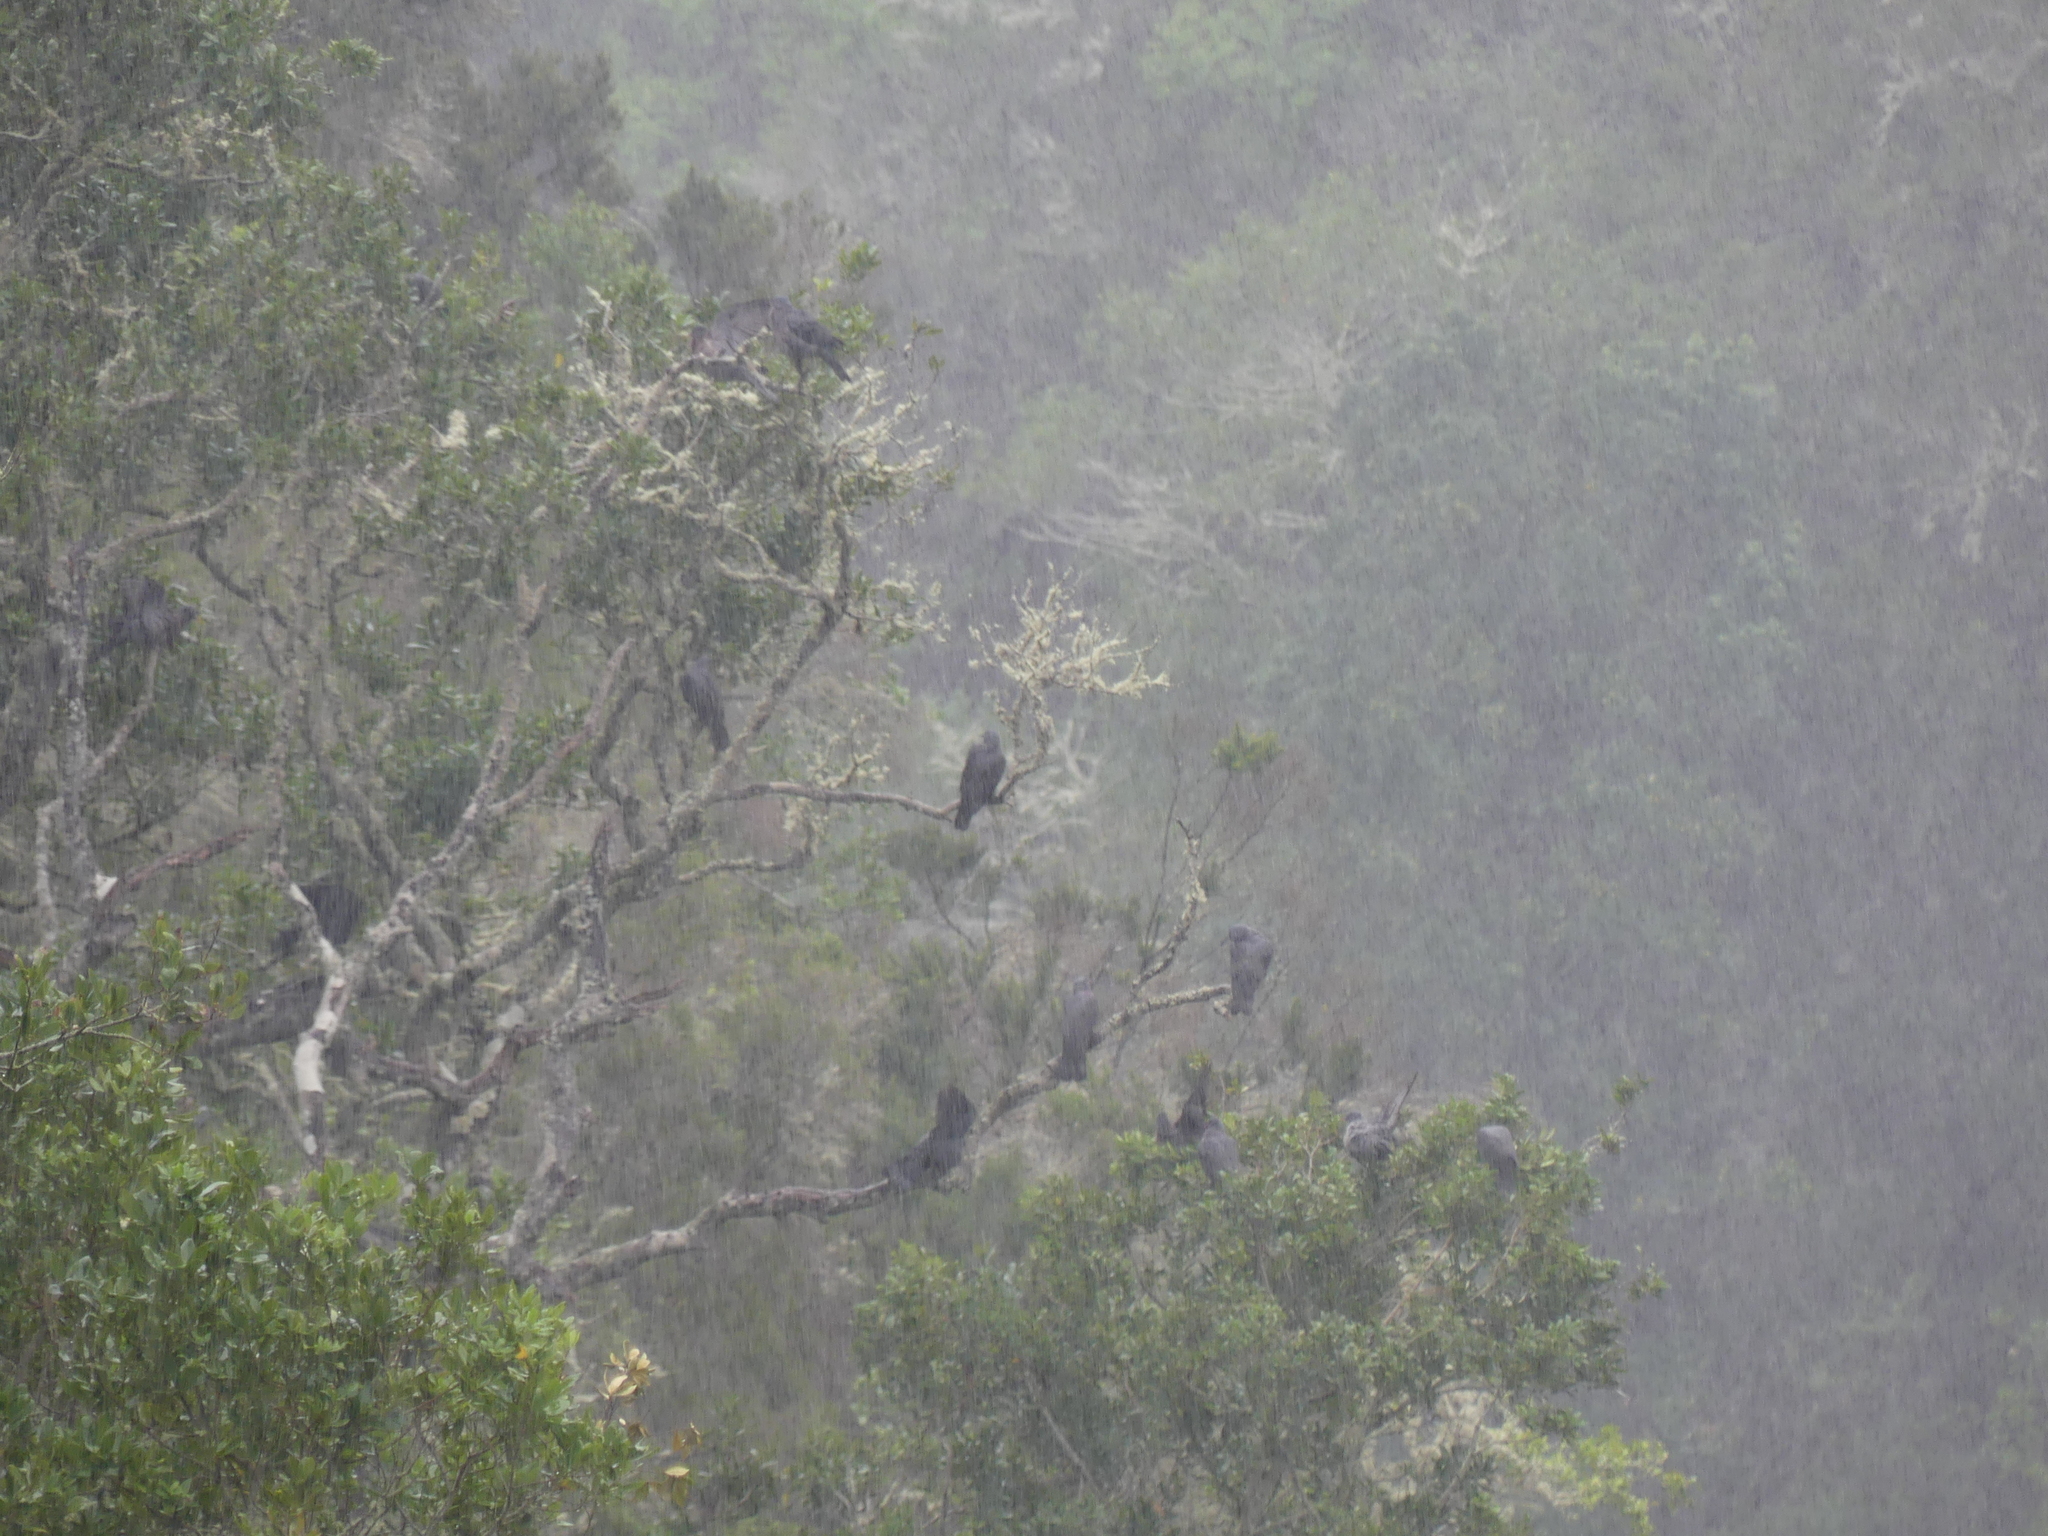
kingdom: Animalia
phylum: Chordata
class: Aves
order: Columbiformes
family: Columbidae
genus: Columba
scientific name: Columba bollii
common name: Bolle's pigeon
